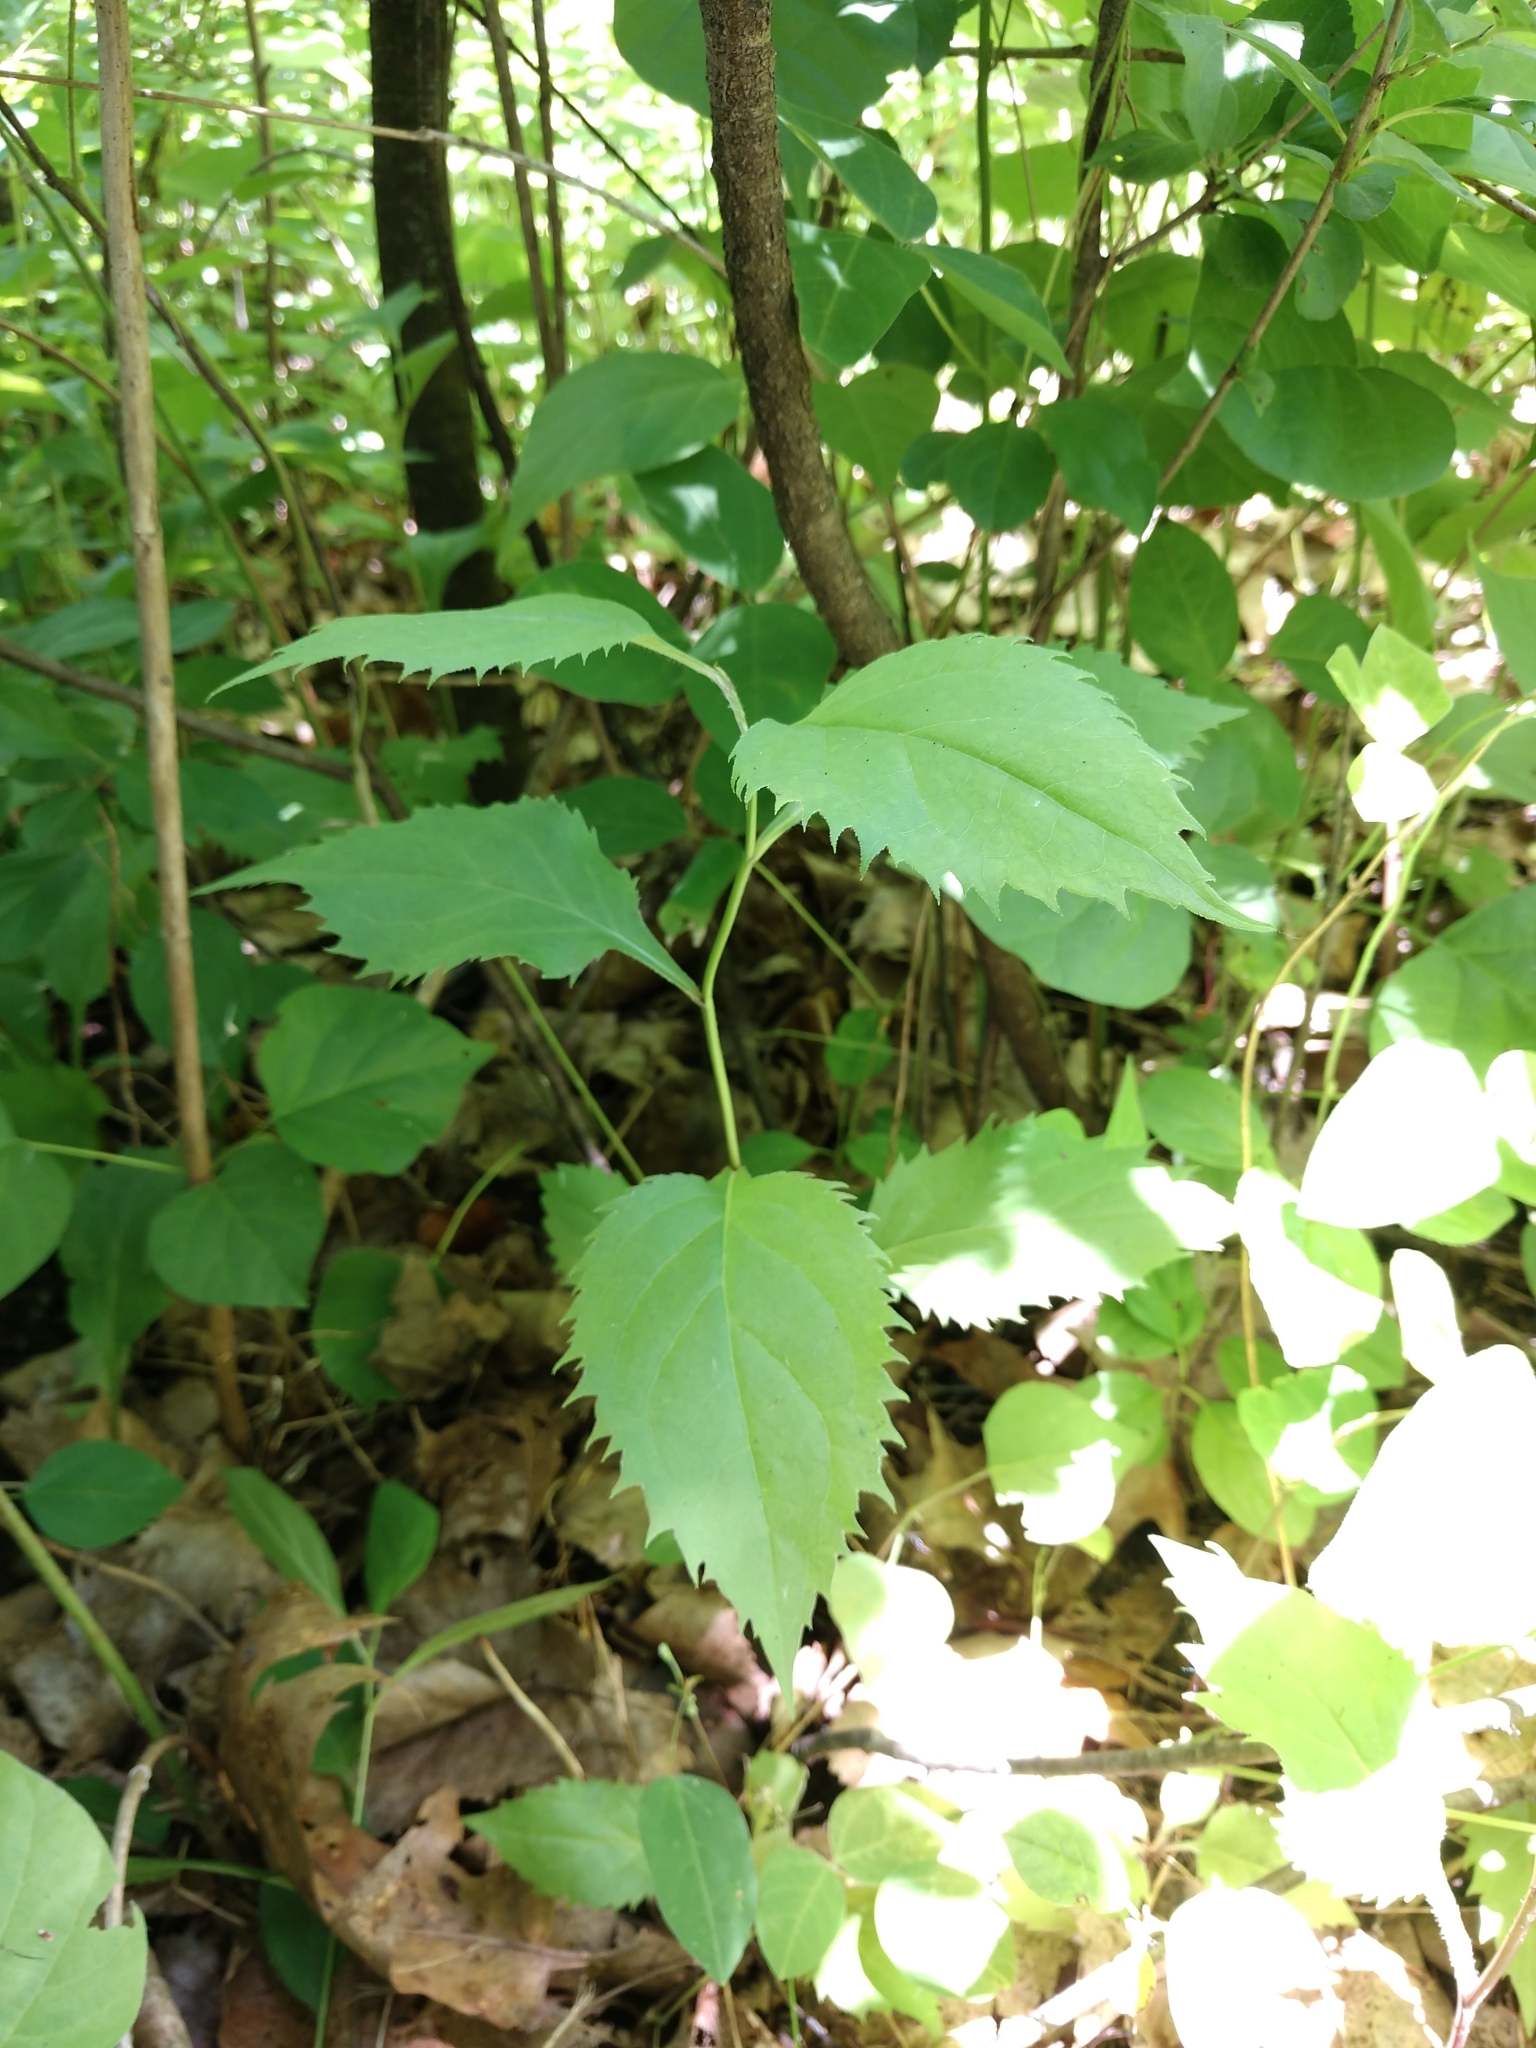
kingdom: Plantae
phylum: Tracheophyta
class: Magnoliopsida
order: Asterales
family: Asteraceae
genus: Solidago
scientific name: Solidago flexicaulis
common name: Zig-zag goldenrod
